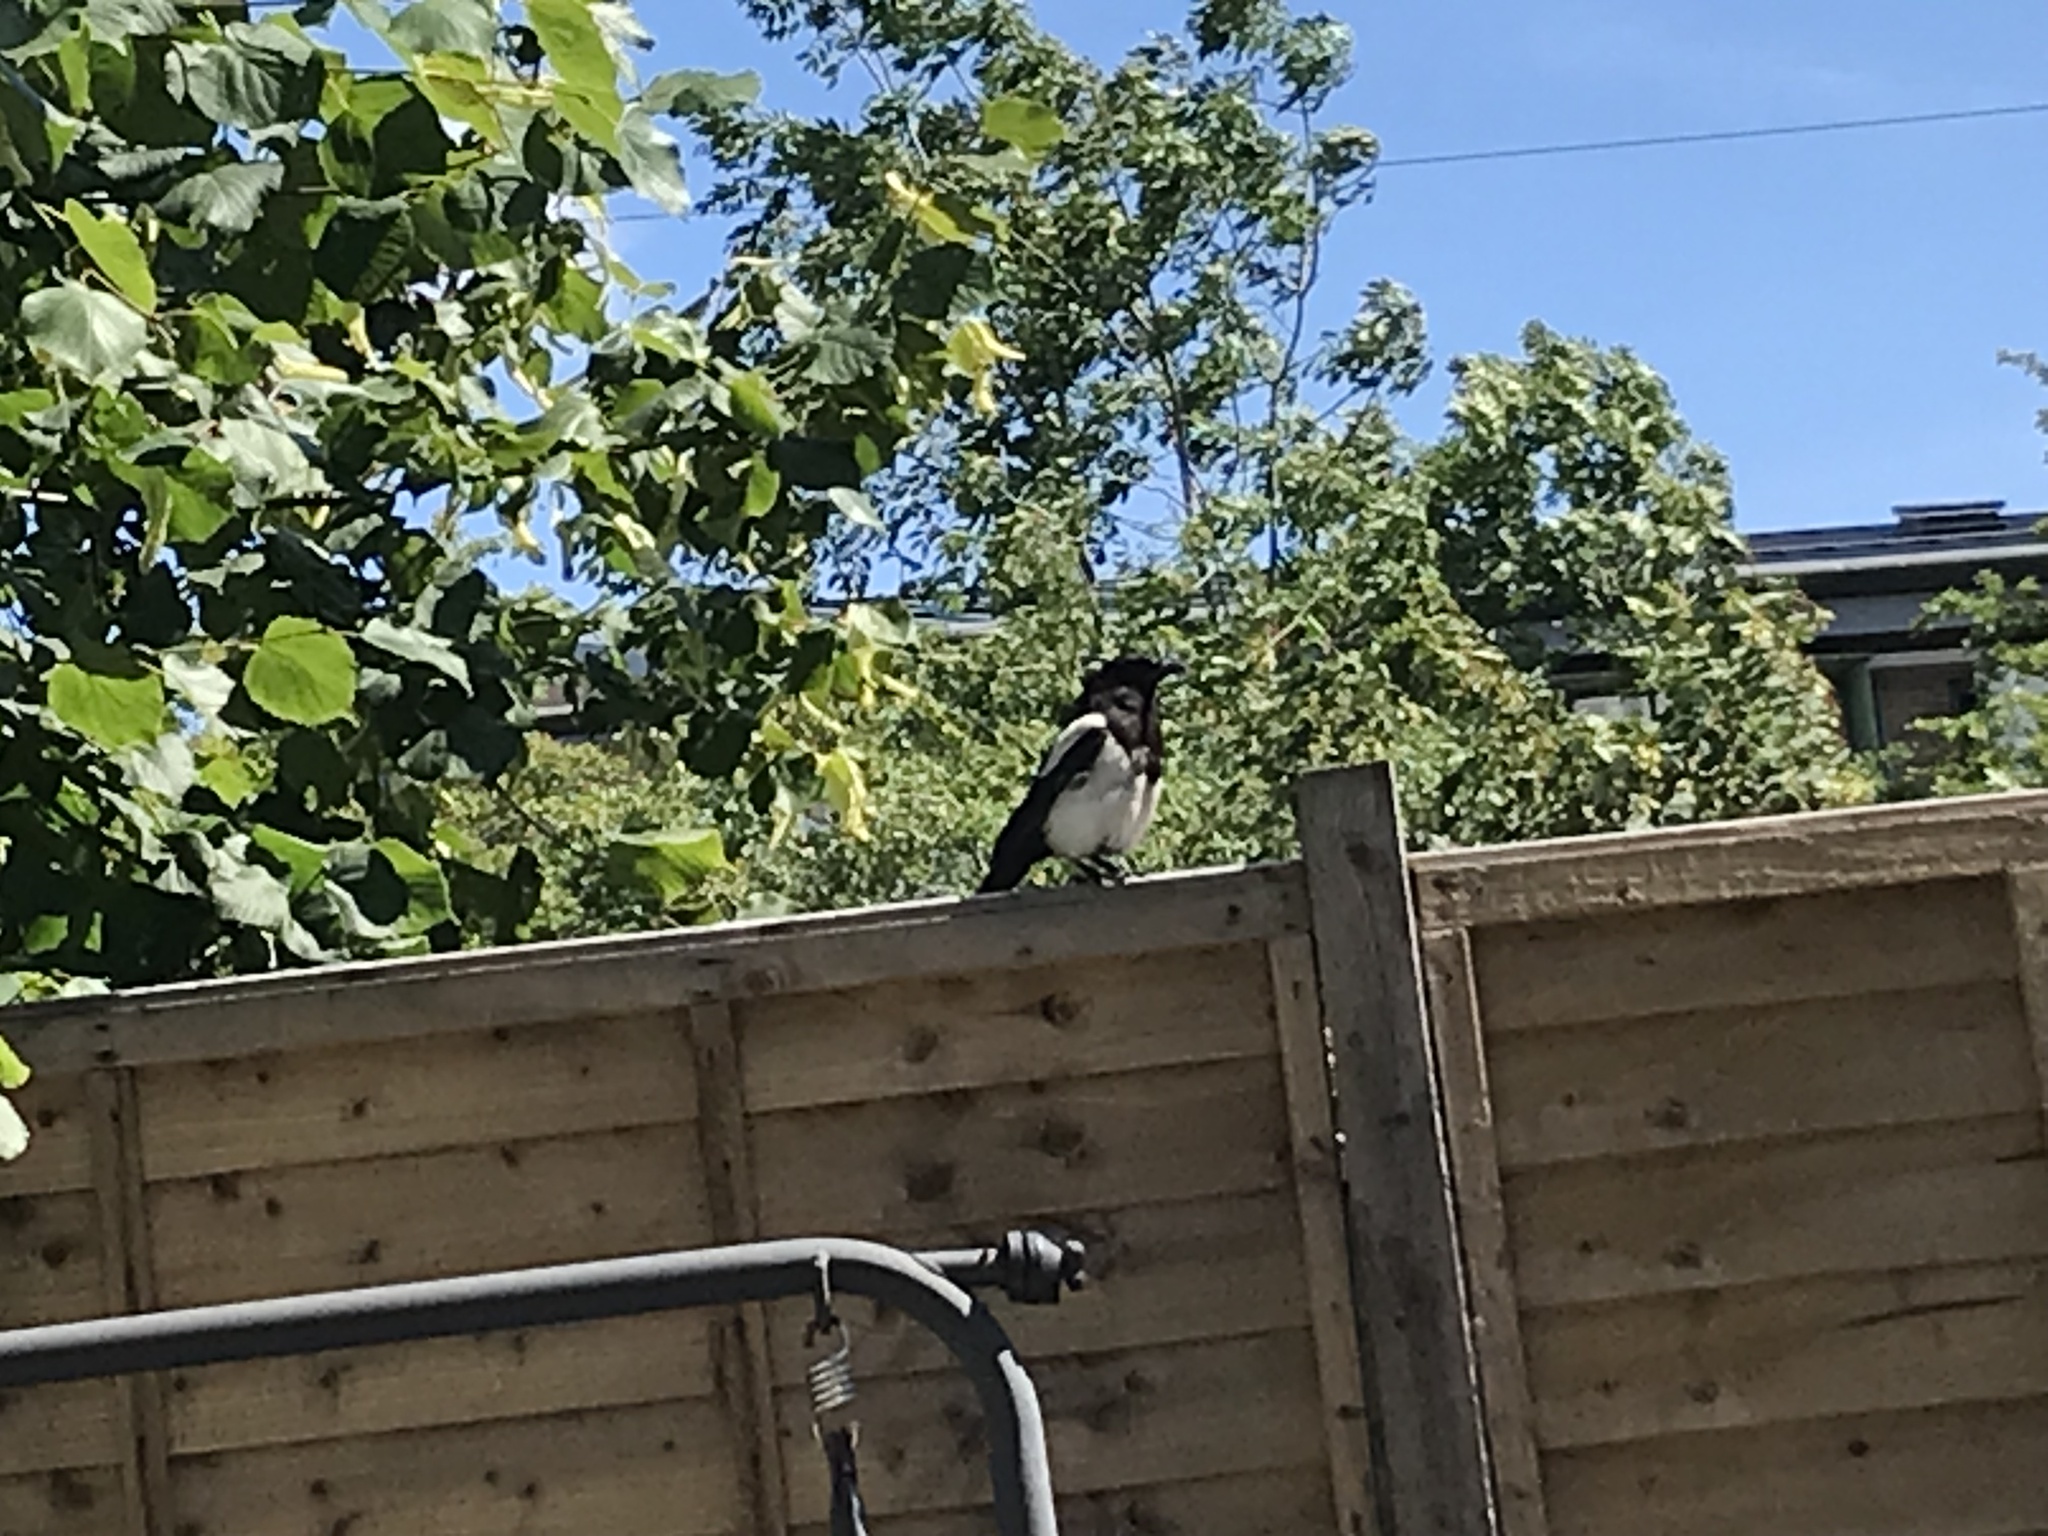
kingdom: Animalia
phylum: Chordata
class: Aves
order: Passeriformes
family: Corvidae
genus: Pica
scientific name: Pica pica
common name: Eurasian magpie
